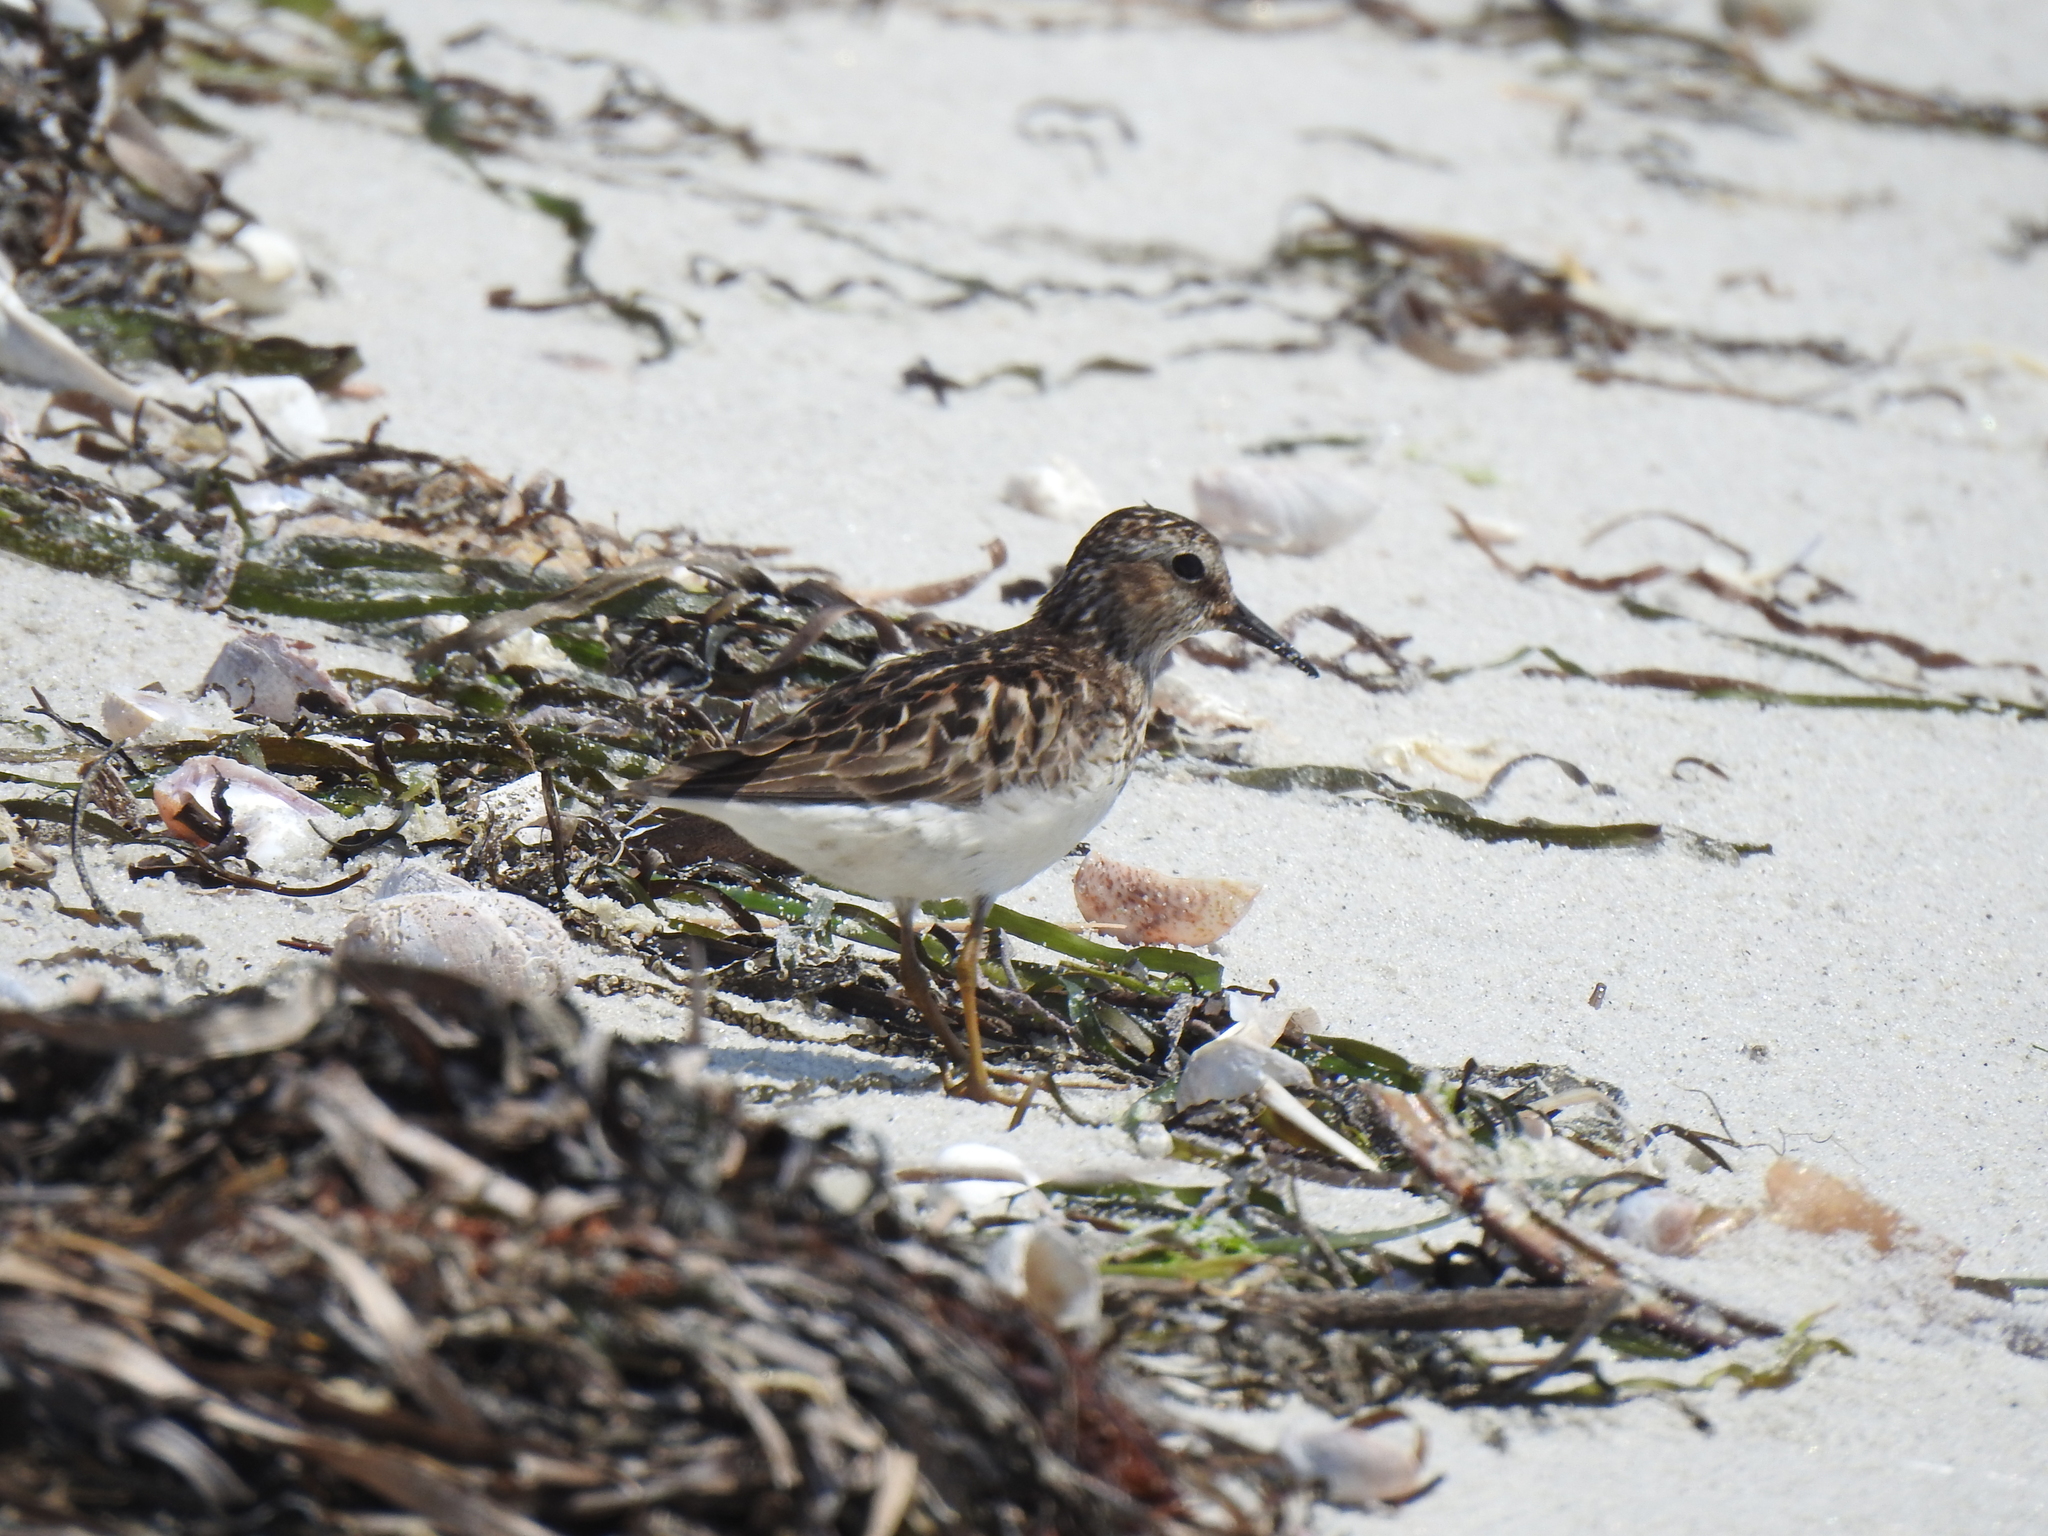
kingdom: Animalia
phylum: Chordata
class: Aves
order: Charadriiformes
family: Scolopacidae
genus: Calidris
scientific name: Calidris minutilla
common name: Least sandpiper
